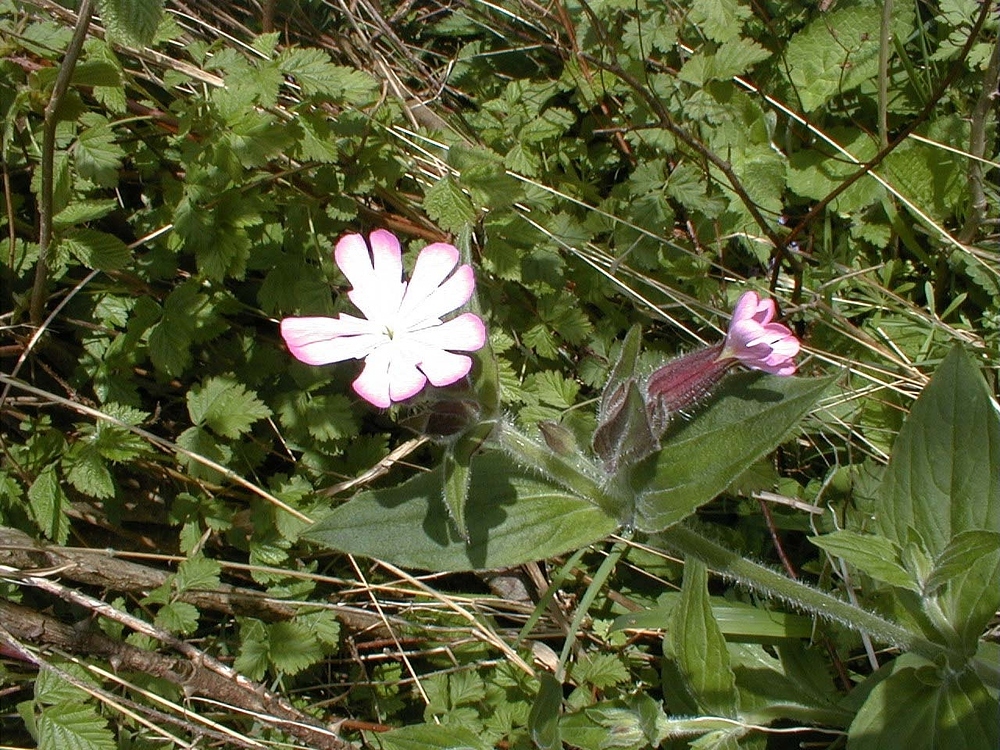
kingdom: Plantae
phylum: Tracheophyta
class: Magnoliopsida
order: Caryophyllales
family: Caryophyllaceae
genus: Silene
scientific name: Silene dioica
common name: Red campion
